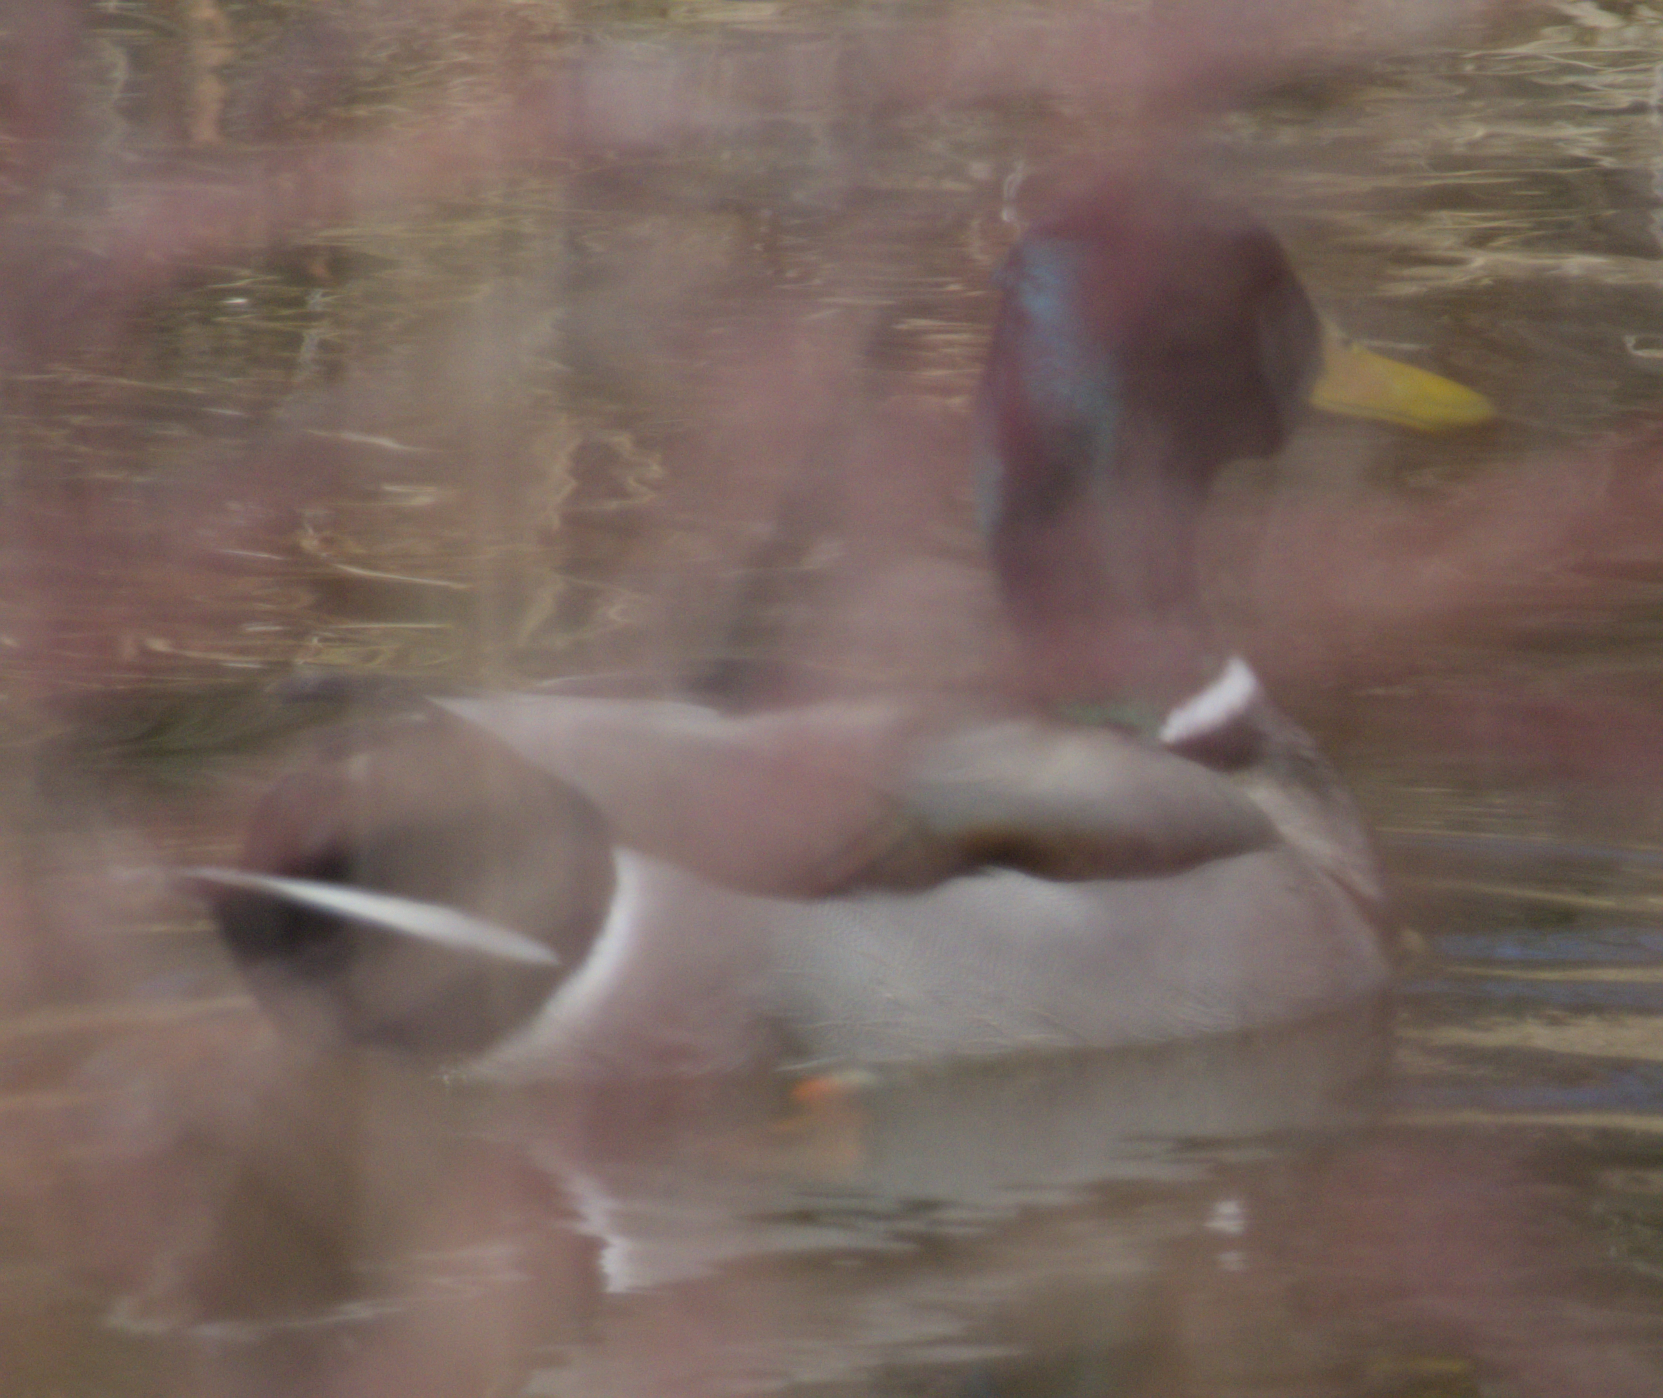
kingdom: Animalia
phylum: Chordata
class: Aves
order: Anseriformes
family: Anatidae
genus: Anas
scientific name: Anas platyrhynchos
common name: Mallard
